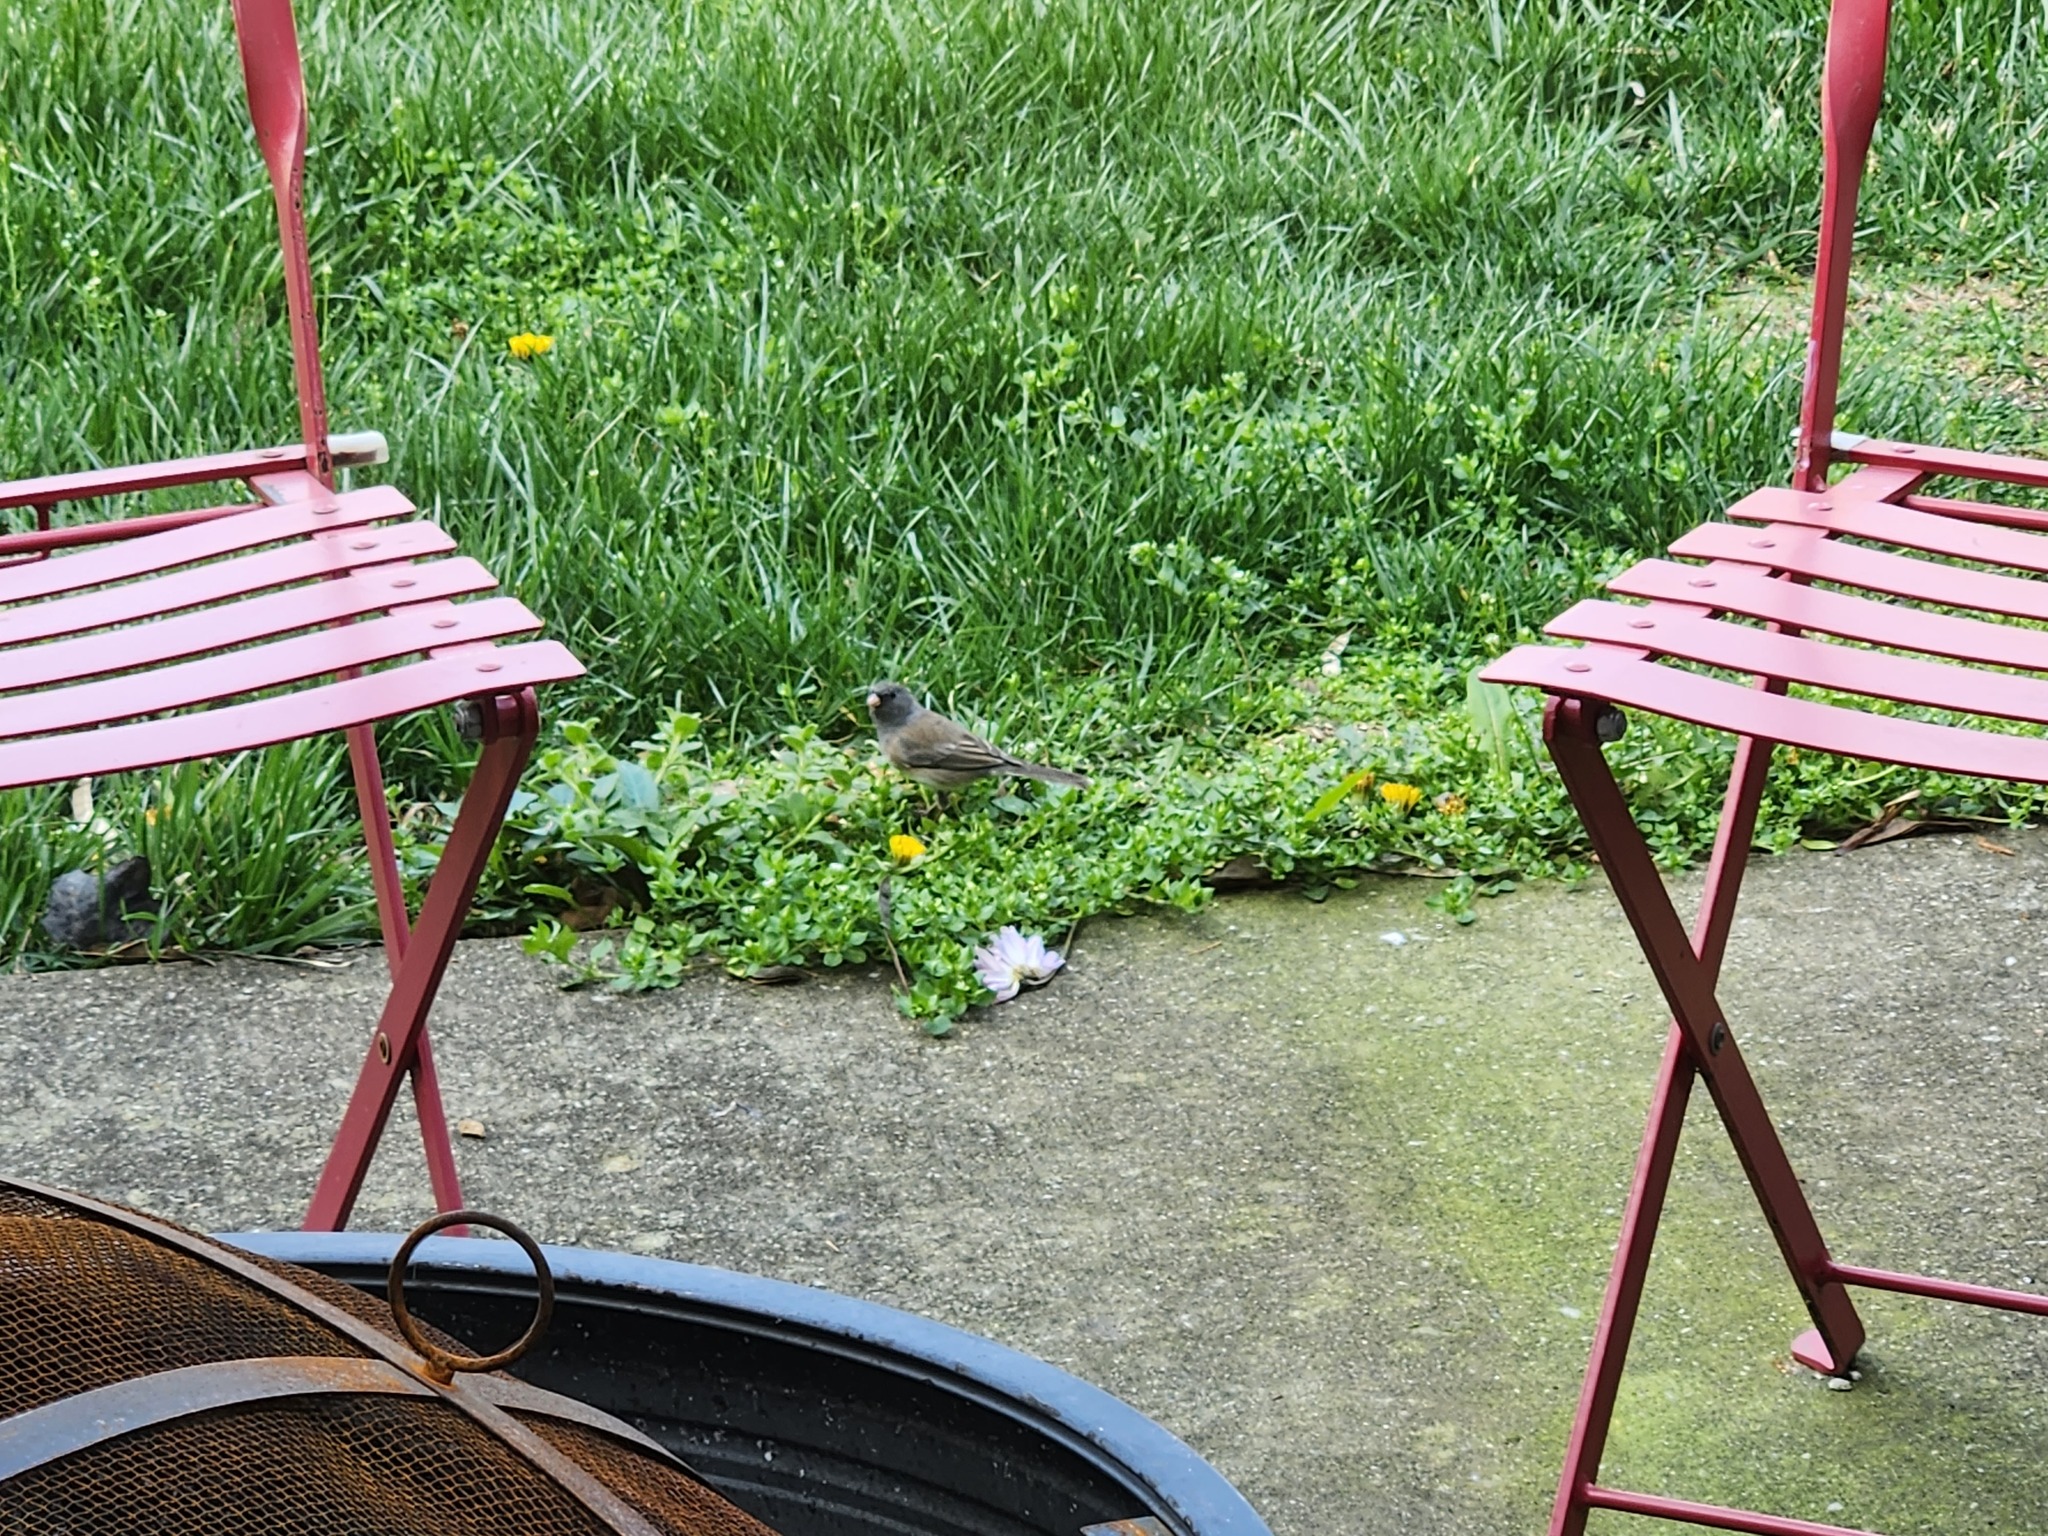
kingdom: Animalia
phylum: Chordata
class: Aves
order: Passeriformes
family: Passerellidae
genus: Junco
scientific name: Junco hyemalis
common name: Dark-eyed junco
